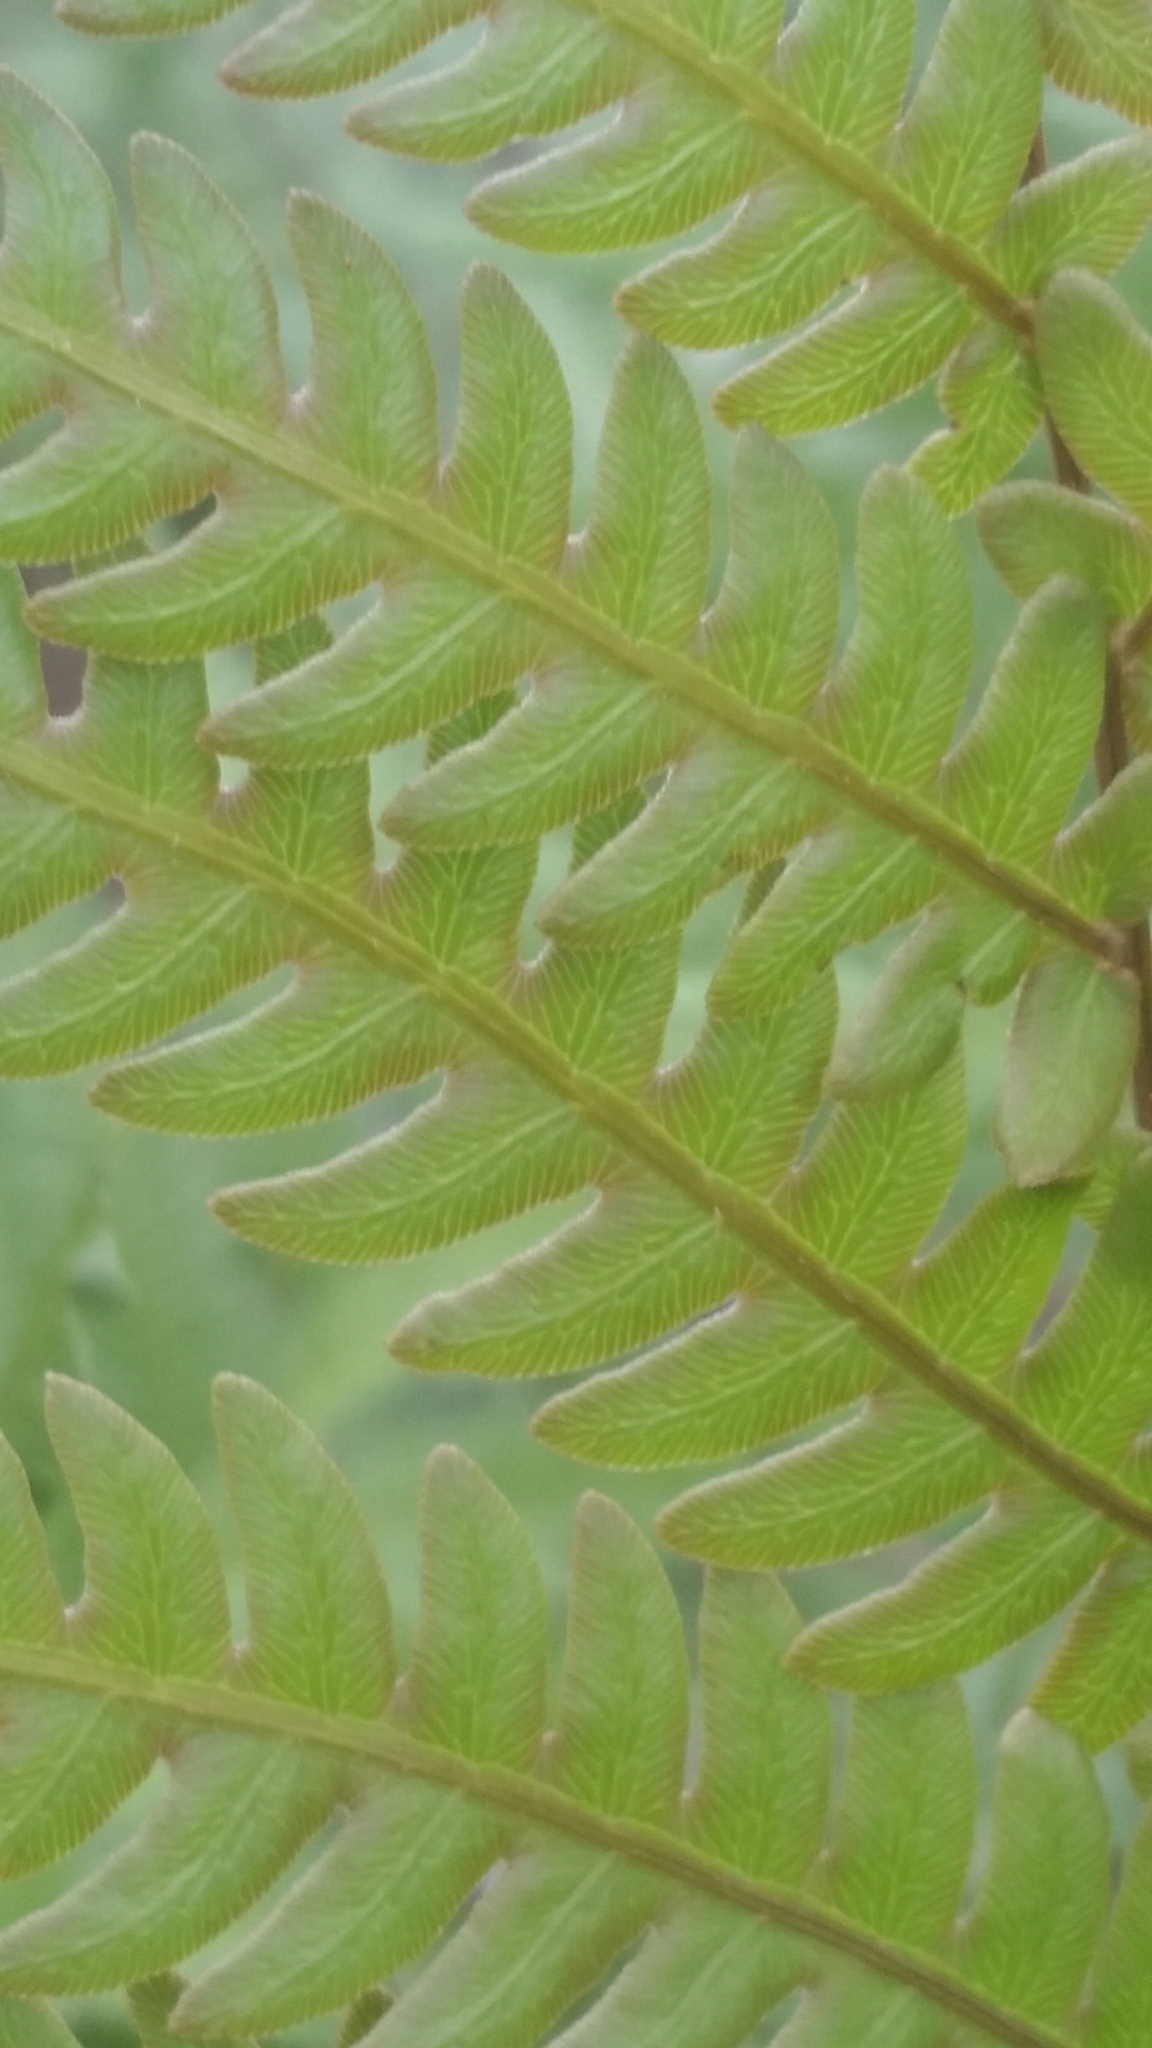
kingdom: Plantae
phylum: Tracheophyta
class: Polypodiopsida
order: Polypodiales
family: Blechnaceae
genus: Anchistea
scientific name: Anchistea virginica
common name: Virginia chain fern
